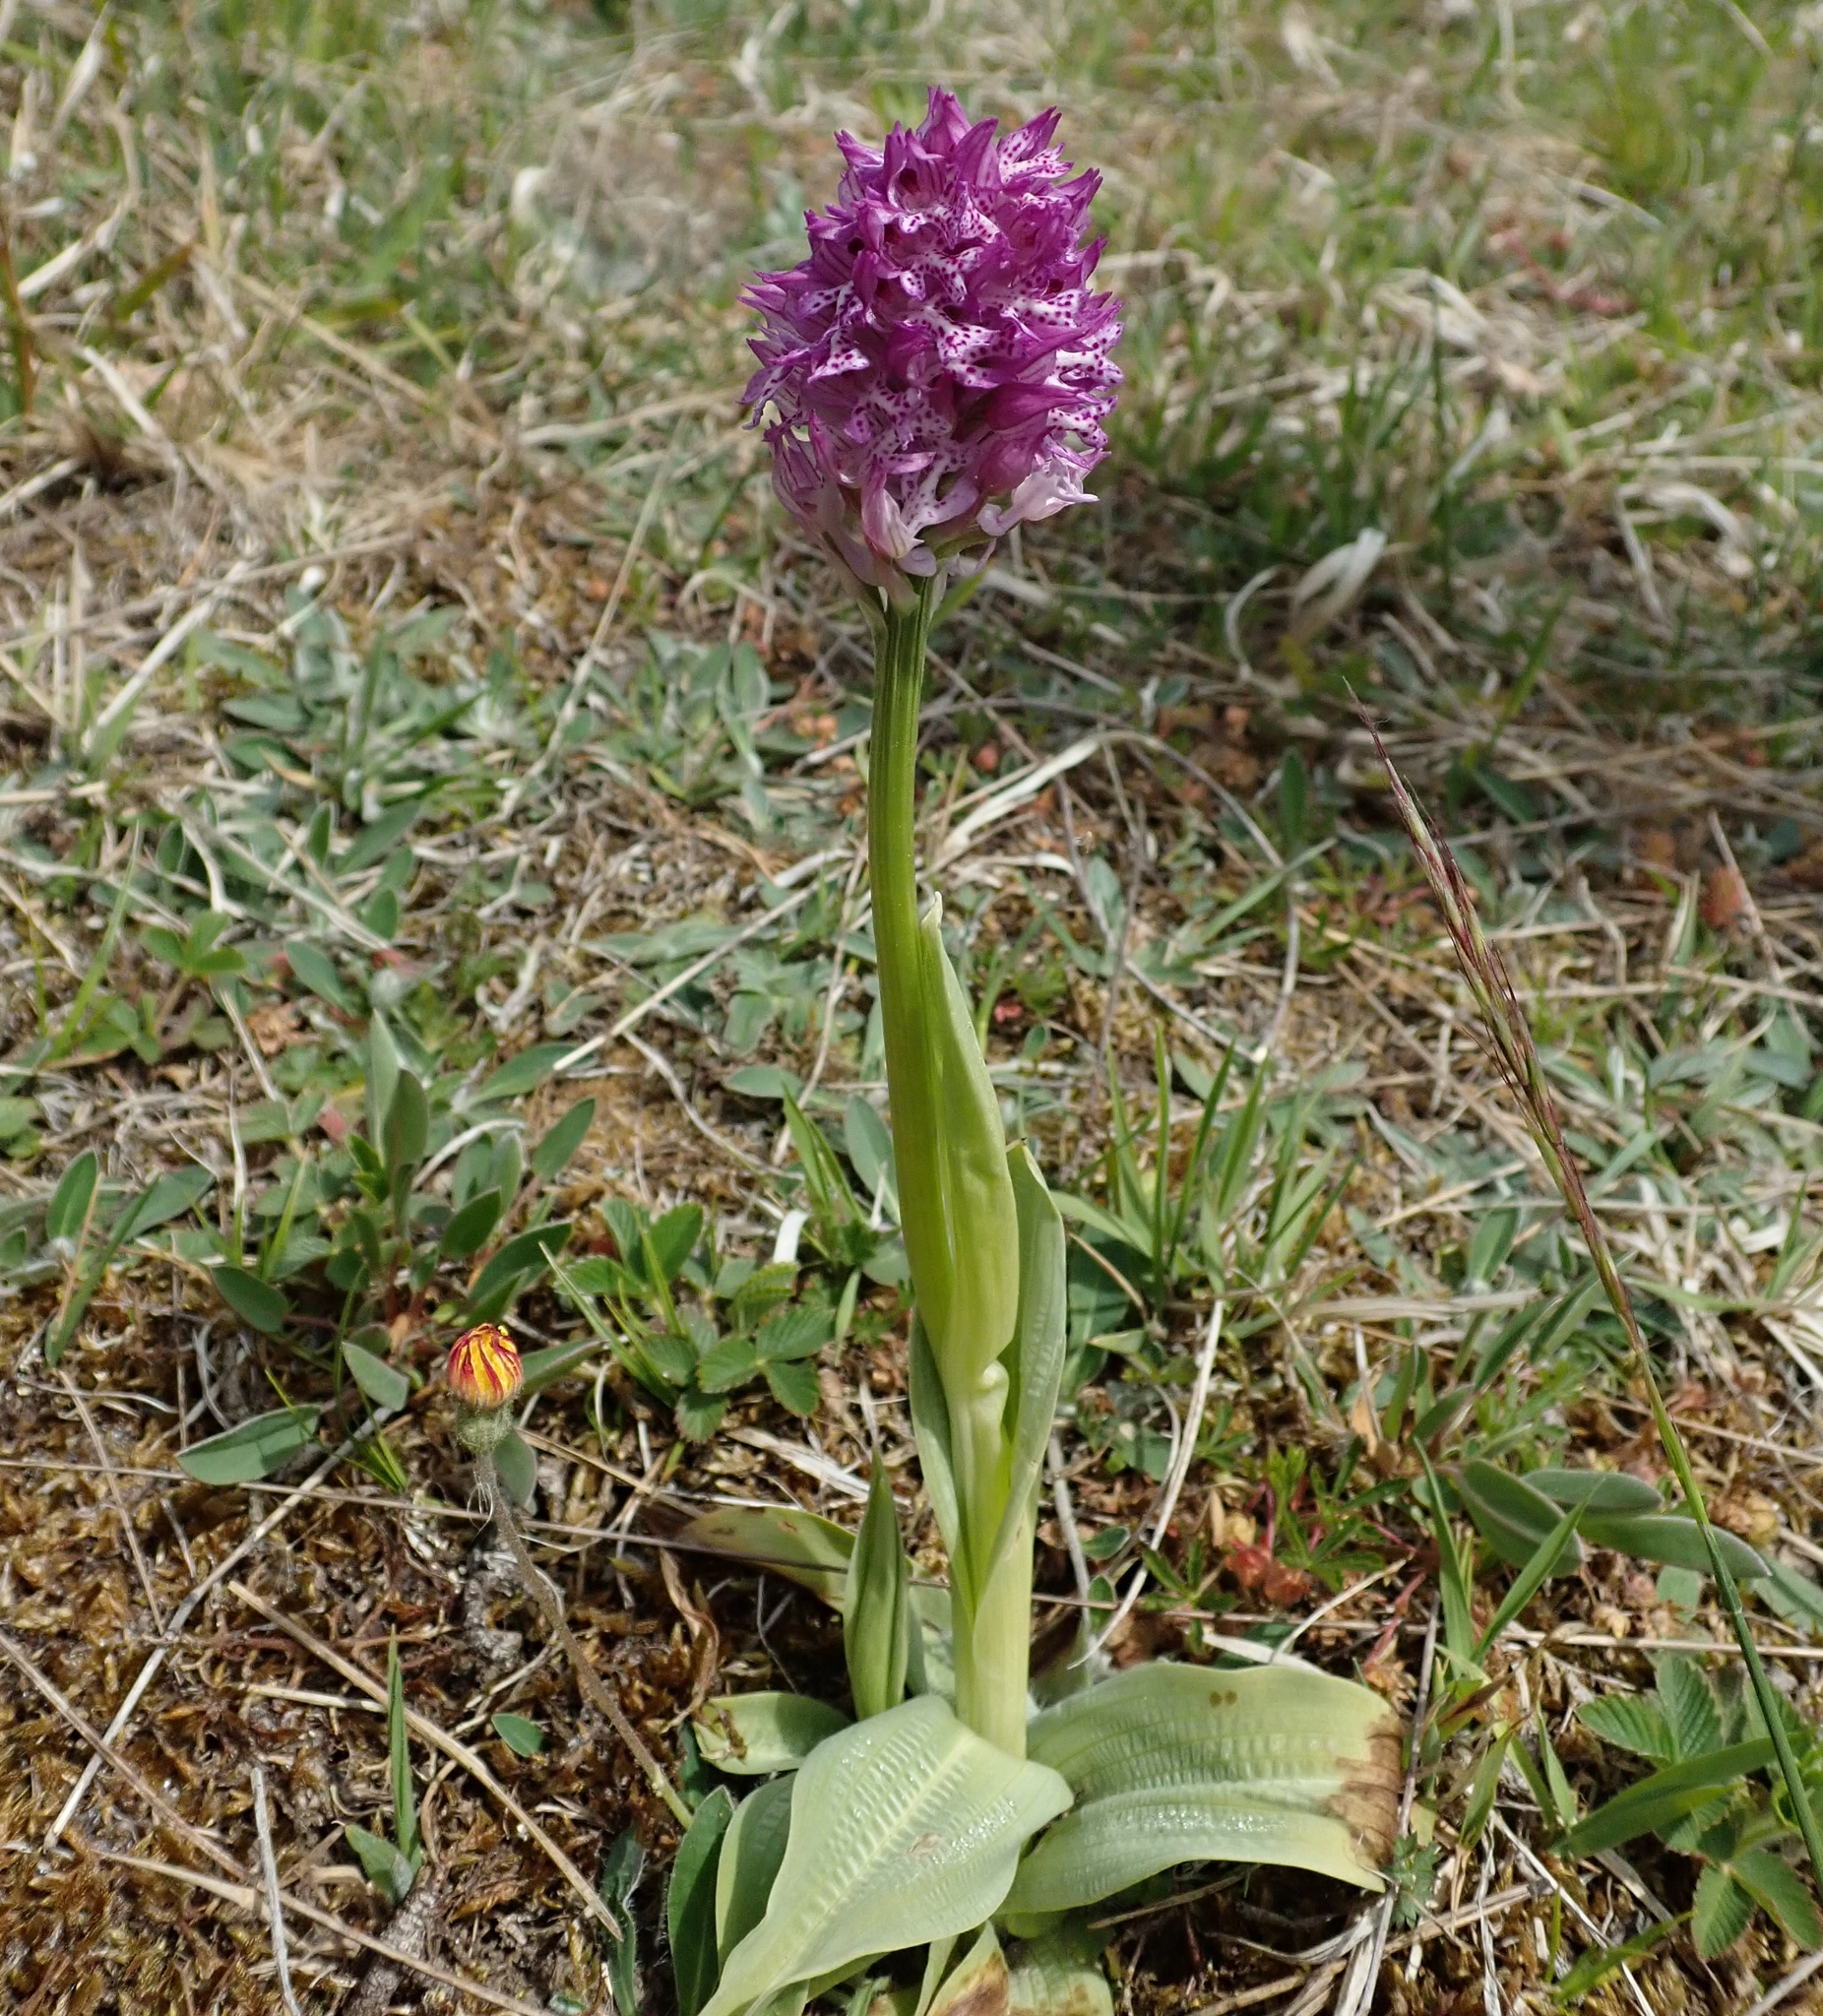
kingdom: Plantae
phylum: Tracheophyta
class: Liliopsida
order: Asparagales
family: Orchidaceae
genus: Neotinea
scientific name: Neotinea tridentata
